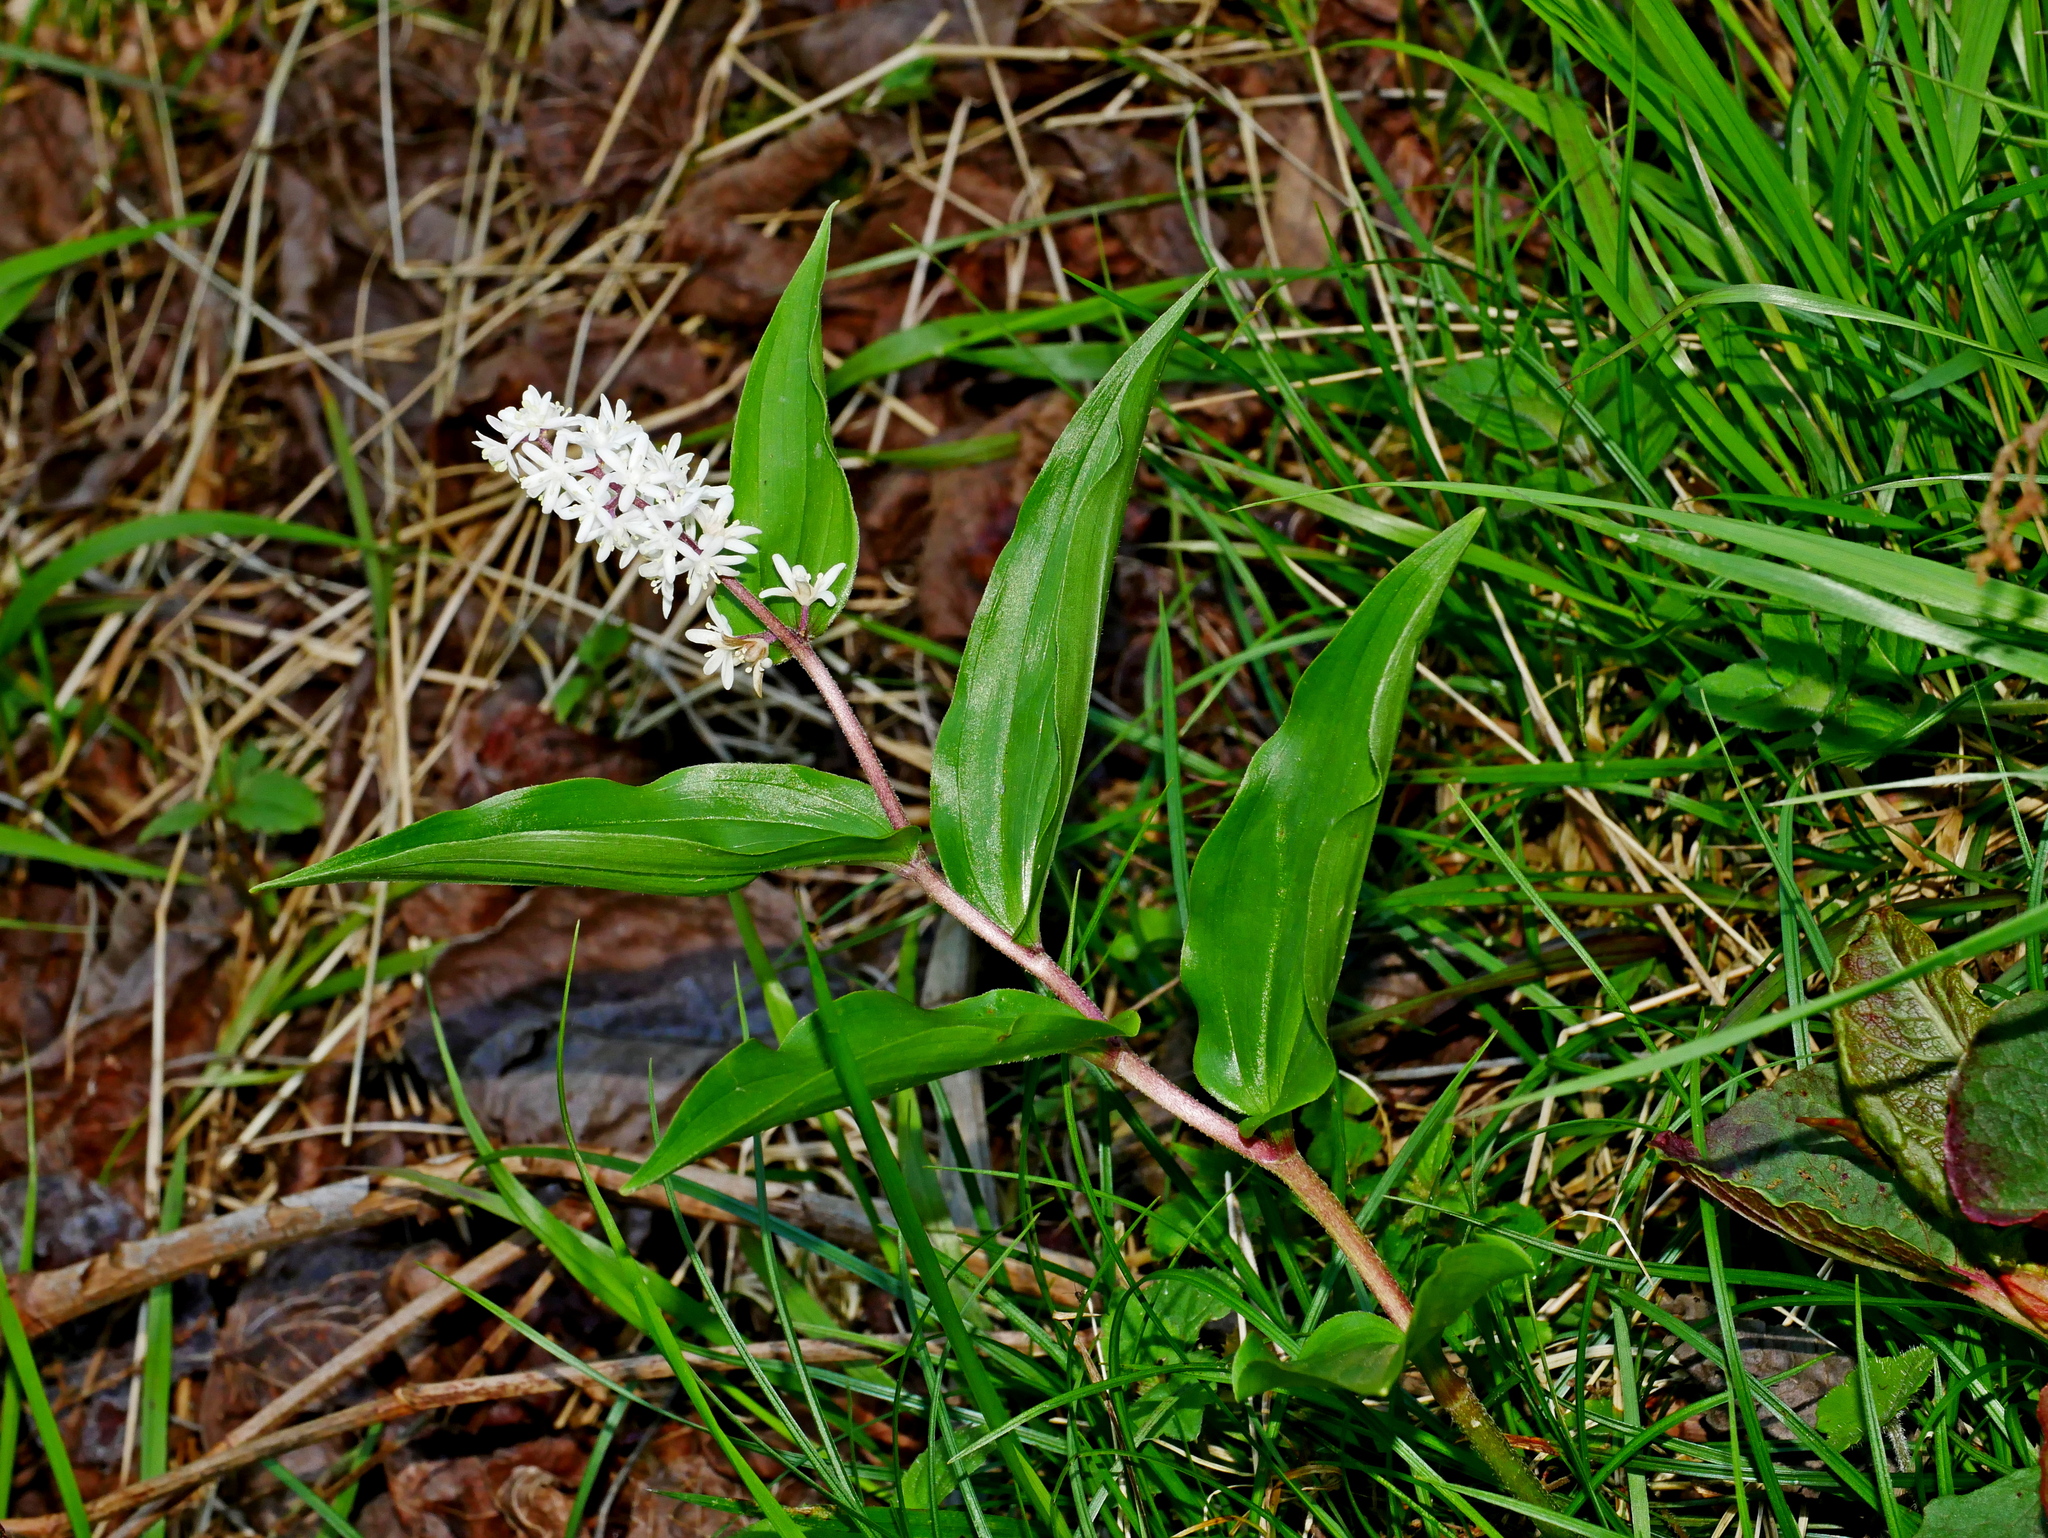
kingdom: Plantae
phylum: Tracheophyta
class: Liliopsida
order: Asparagales
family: Asparagaceae
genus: Maianthemum
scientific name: Maianthemum formosanum
